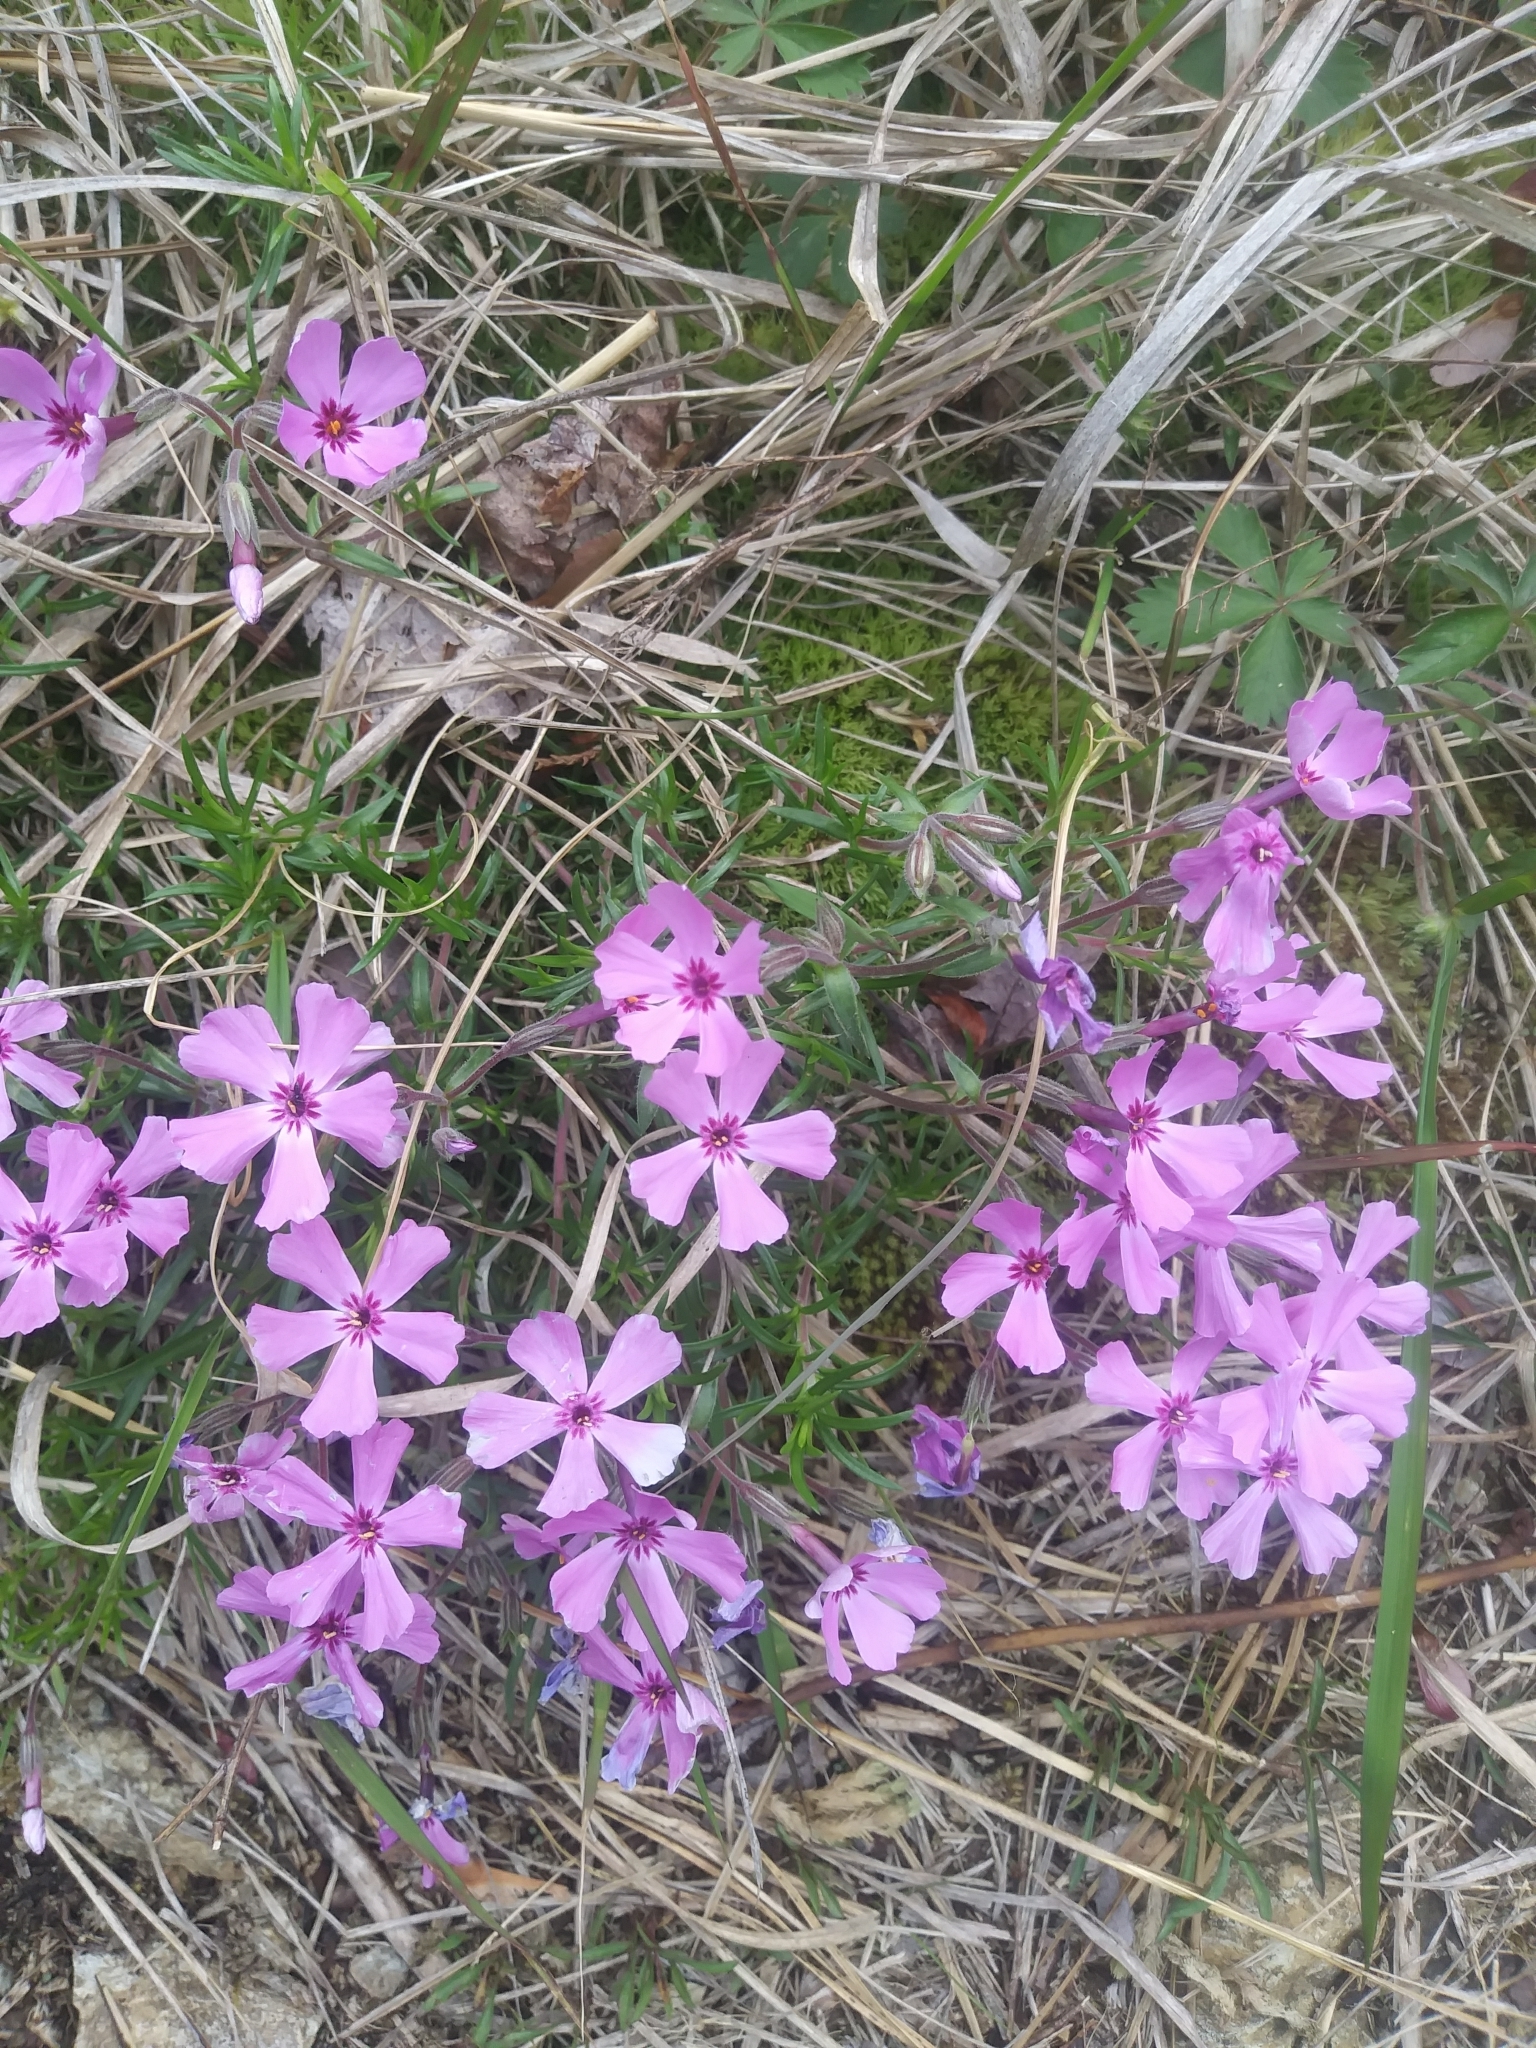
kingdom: Plantae
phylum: Tracheophyta
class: Magnoliopsida
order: Ericales
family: Polemoniaceae
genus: Phlox
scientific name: Phlox subulata
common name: Moss phlox
